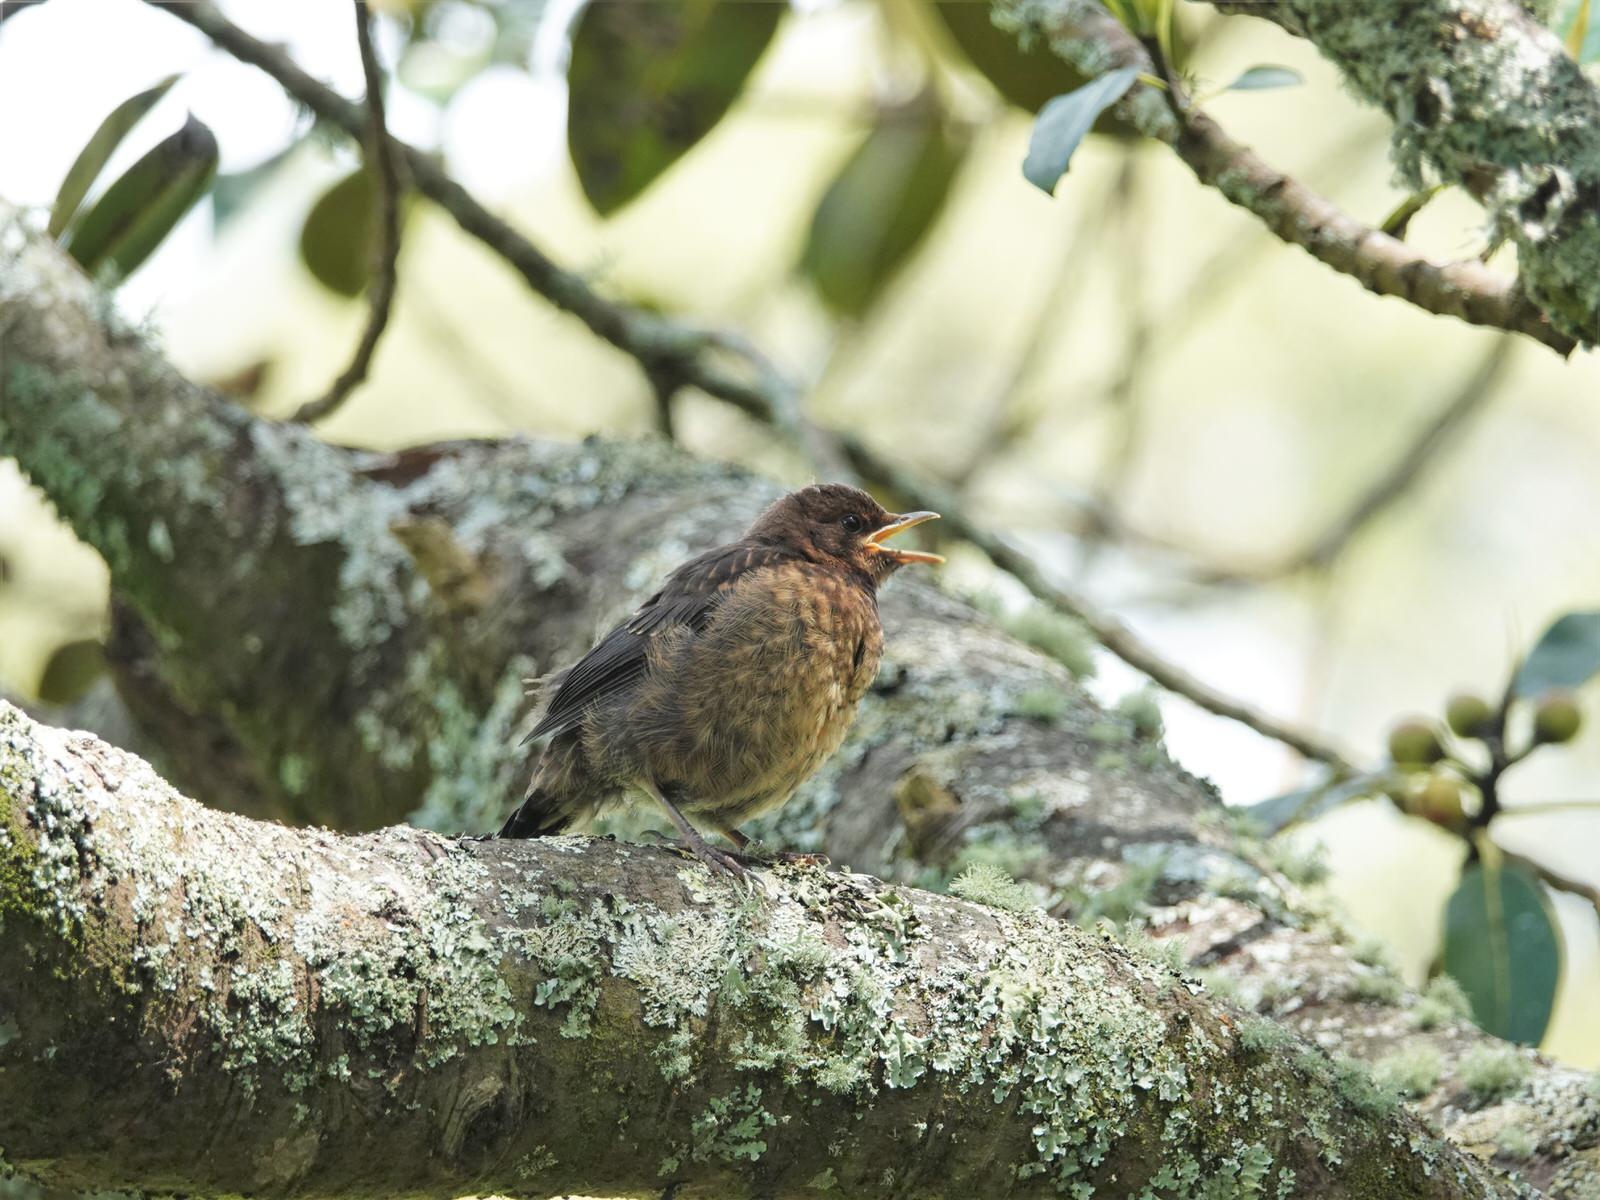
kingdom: Animalia
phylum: Chordata
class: Aves
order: Passeriformes
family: Turdidae
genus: Turdus
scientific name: Turdus merula
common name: Common blackbird
